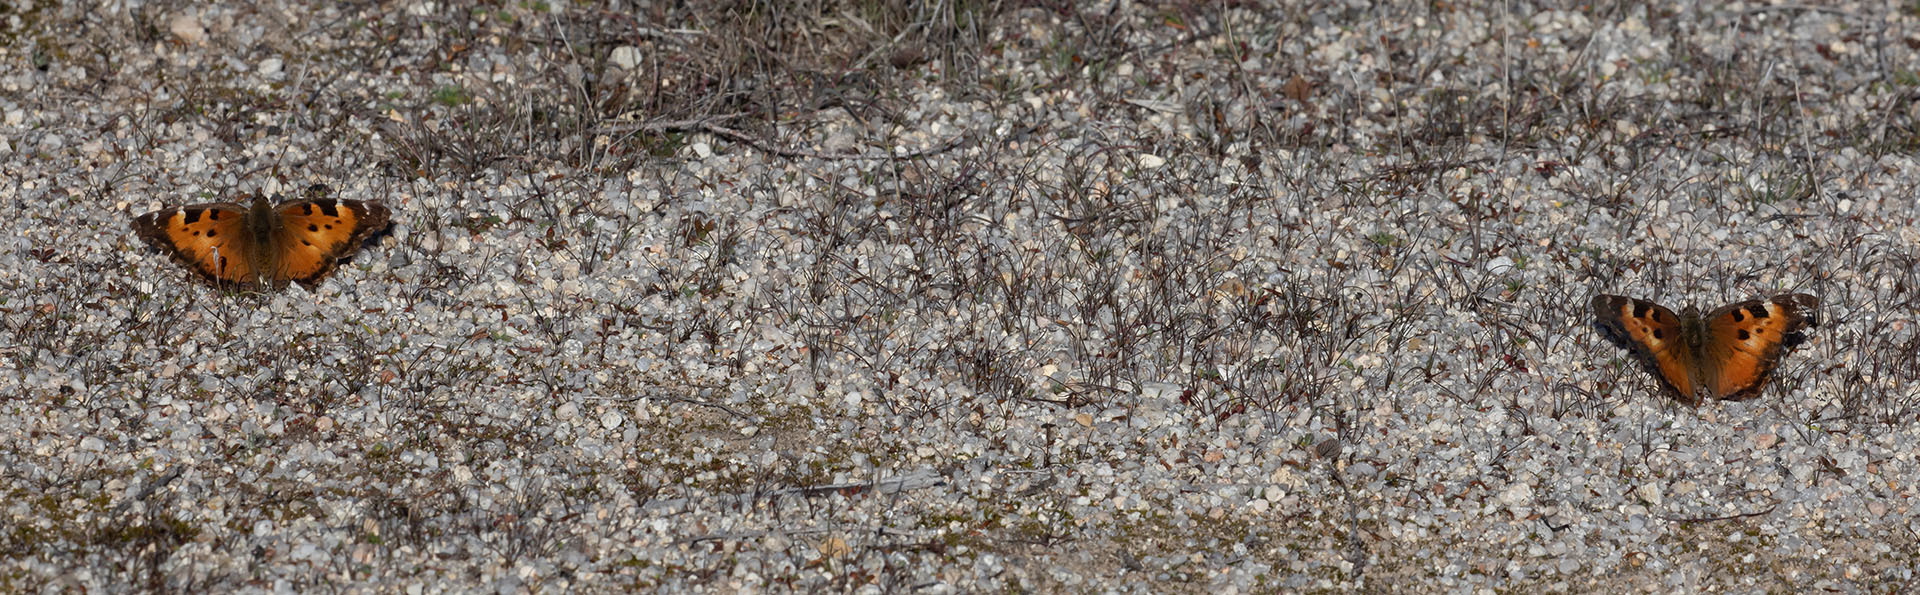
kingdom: Animalia
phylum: Arthropoda
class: Insecta
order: Lepidoptera
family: Nymphalidae
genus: Nymphalis
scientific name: Nymphalis californica
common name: California tortoiseshell
